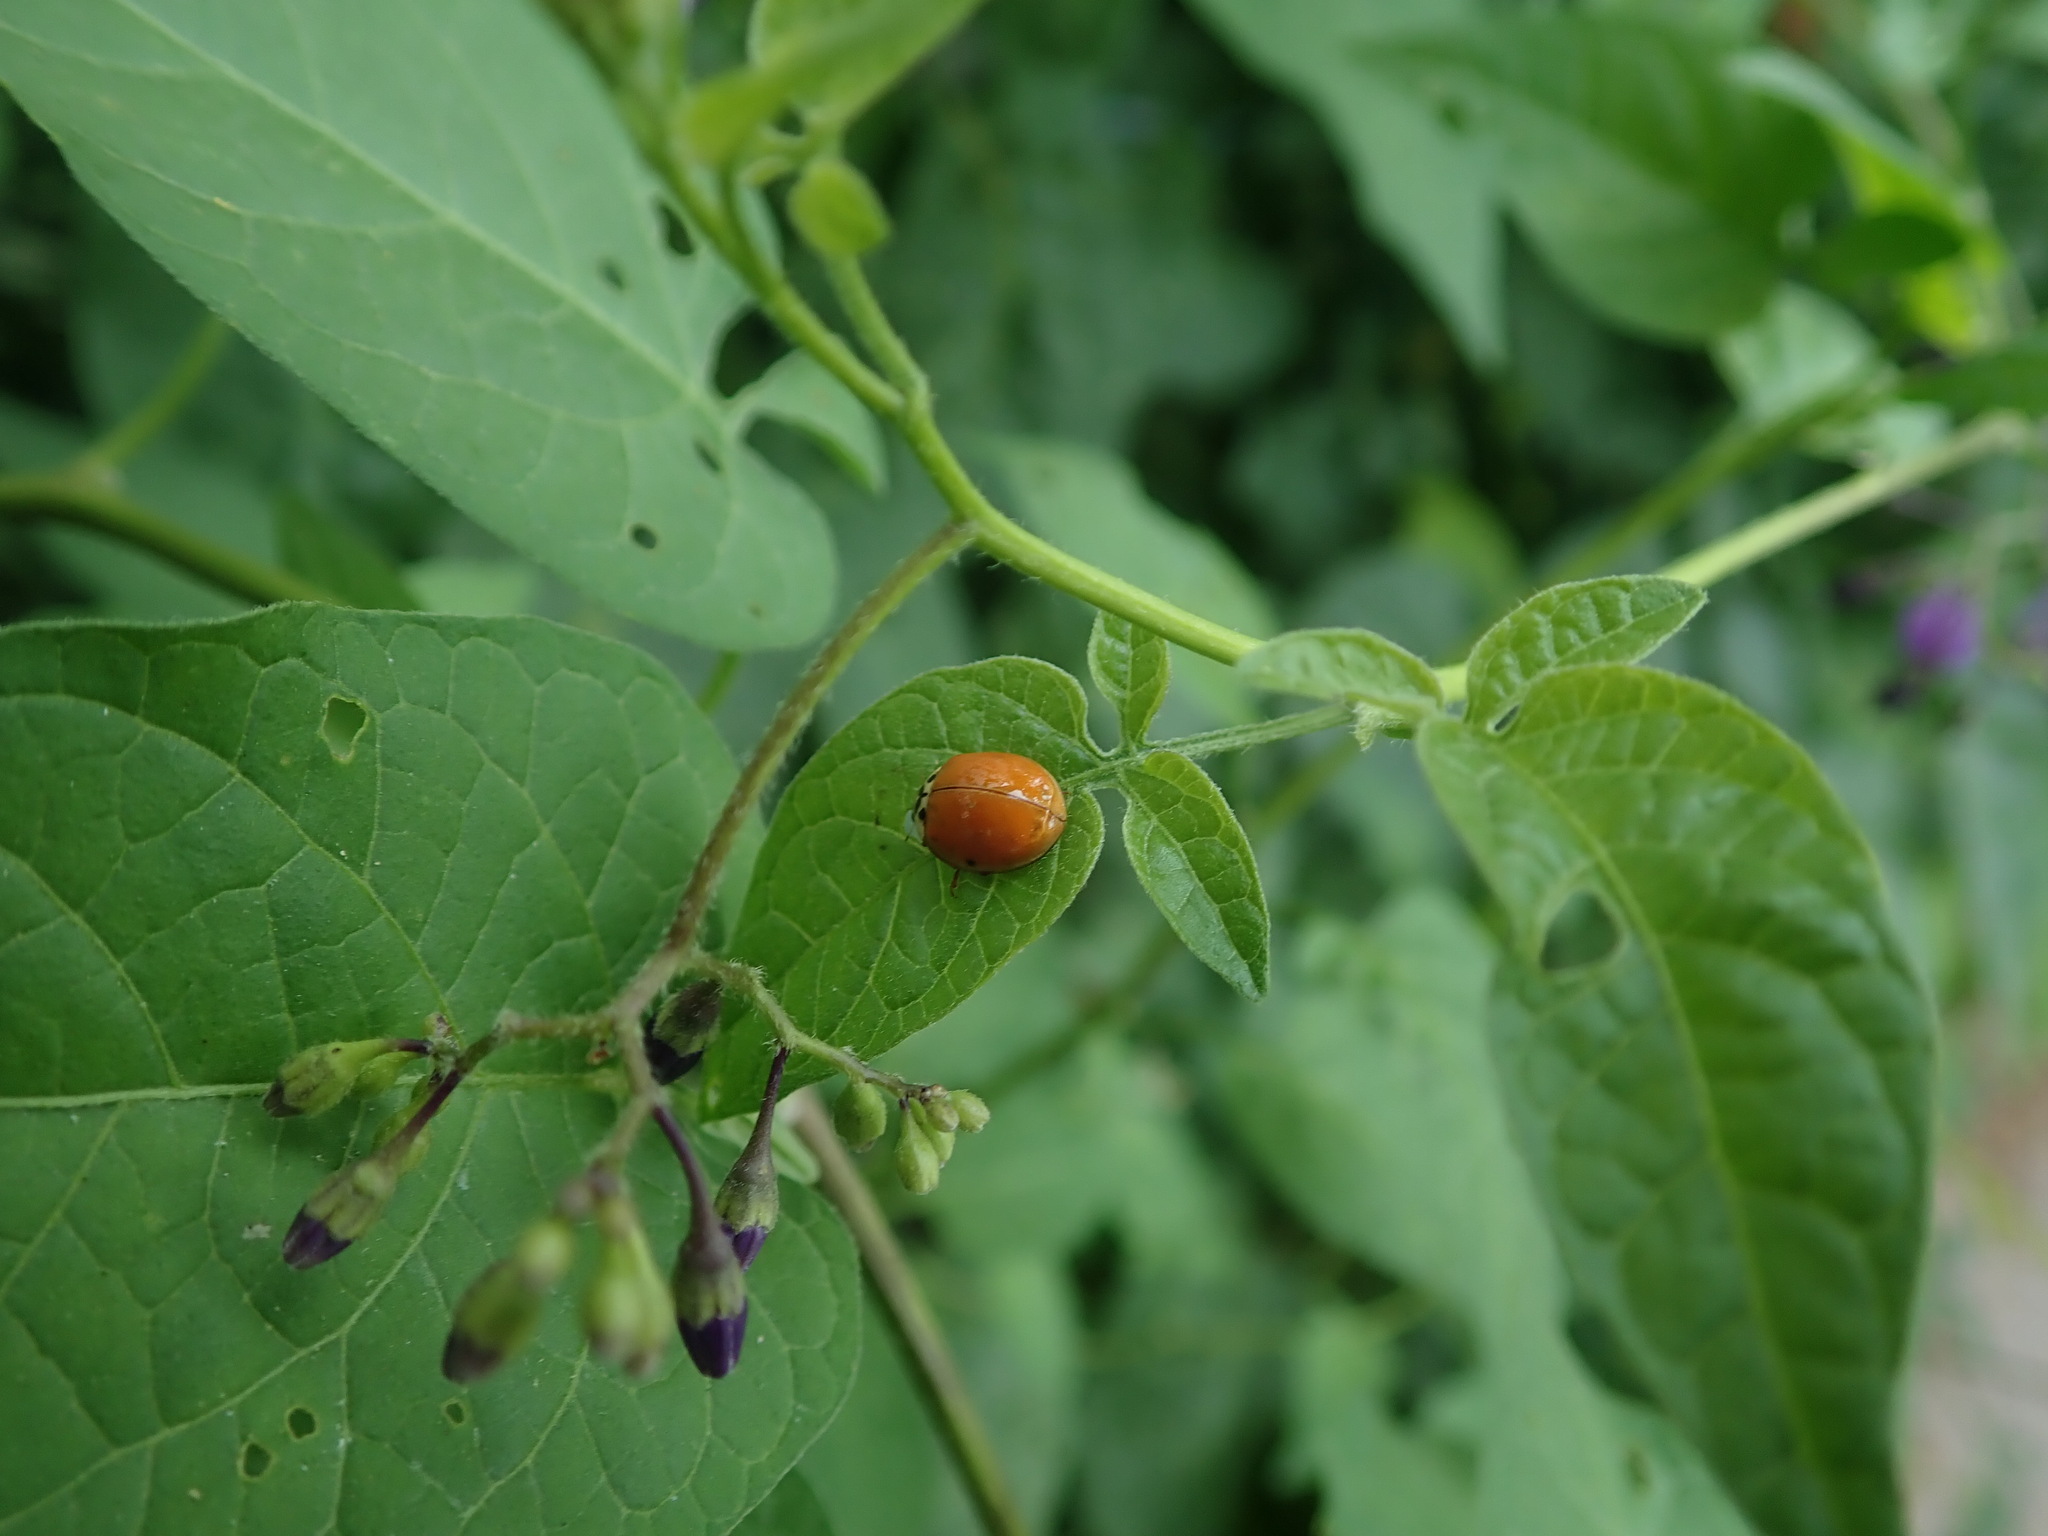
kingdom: Animalia
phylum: Arthropoda
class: Insecta
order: Coleoptera
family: Coccinellidae
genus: Harmonia
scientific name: Harmonia axyridis
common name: Harlequin ladybird
